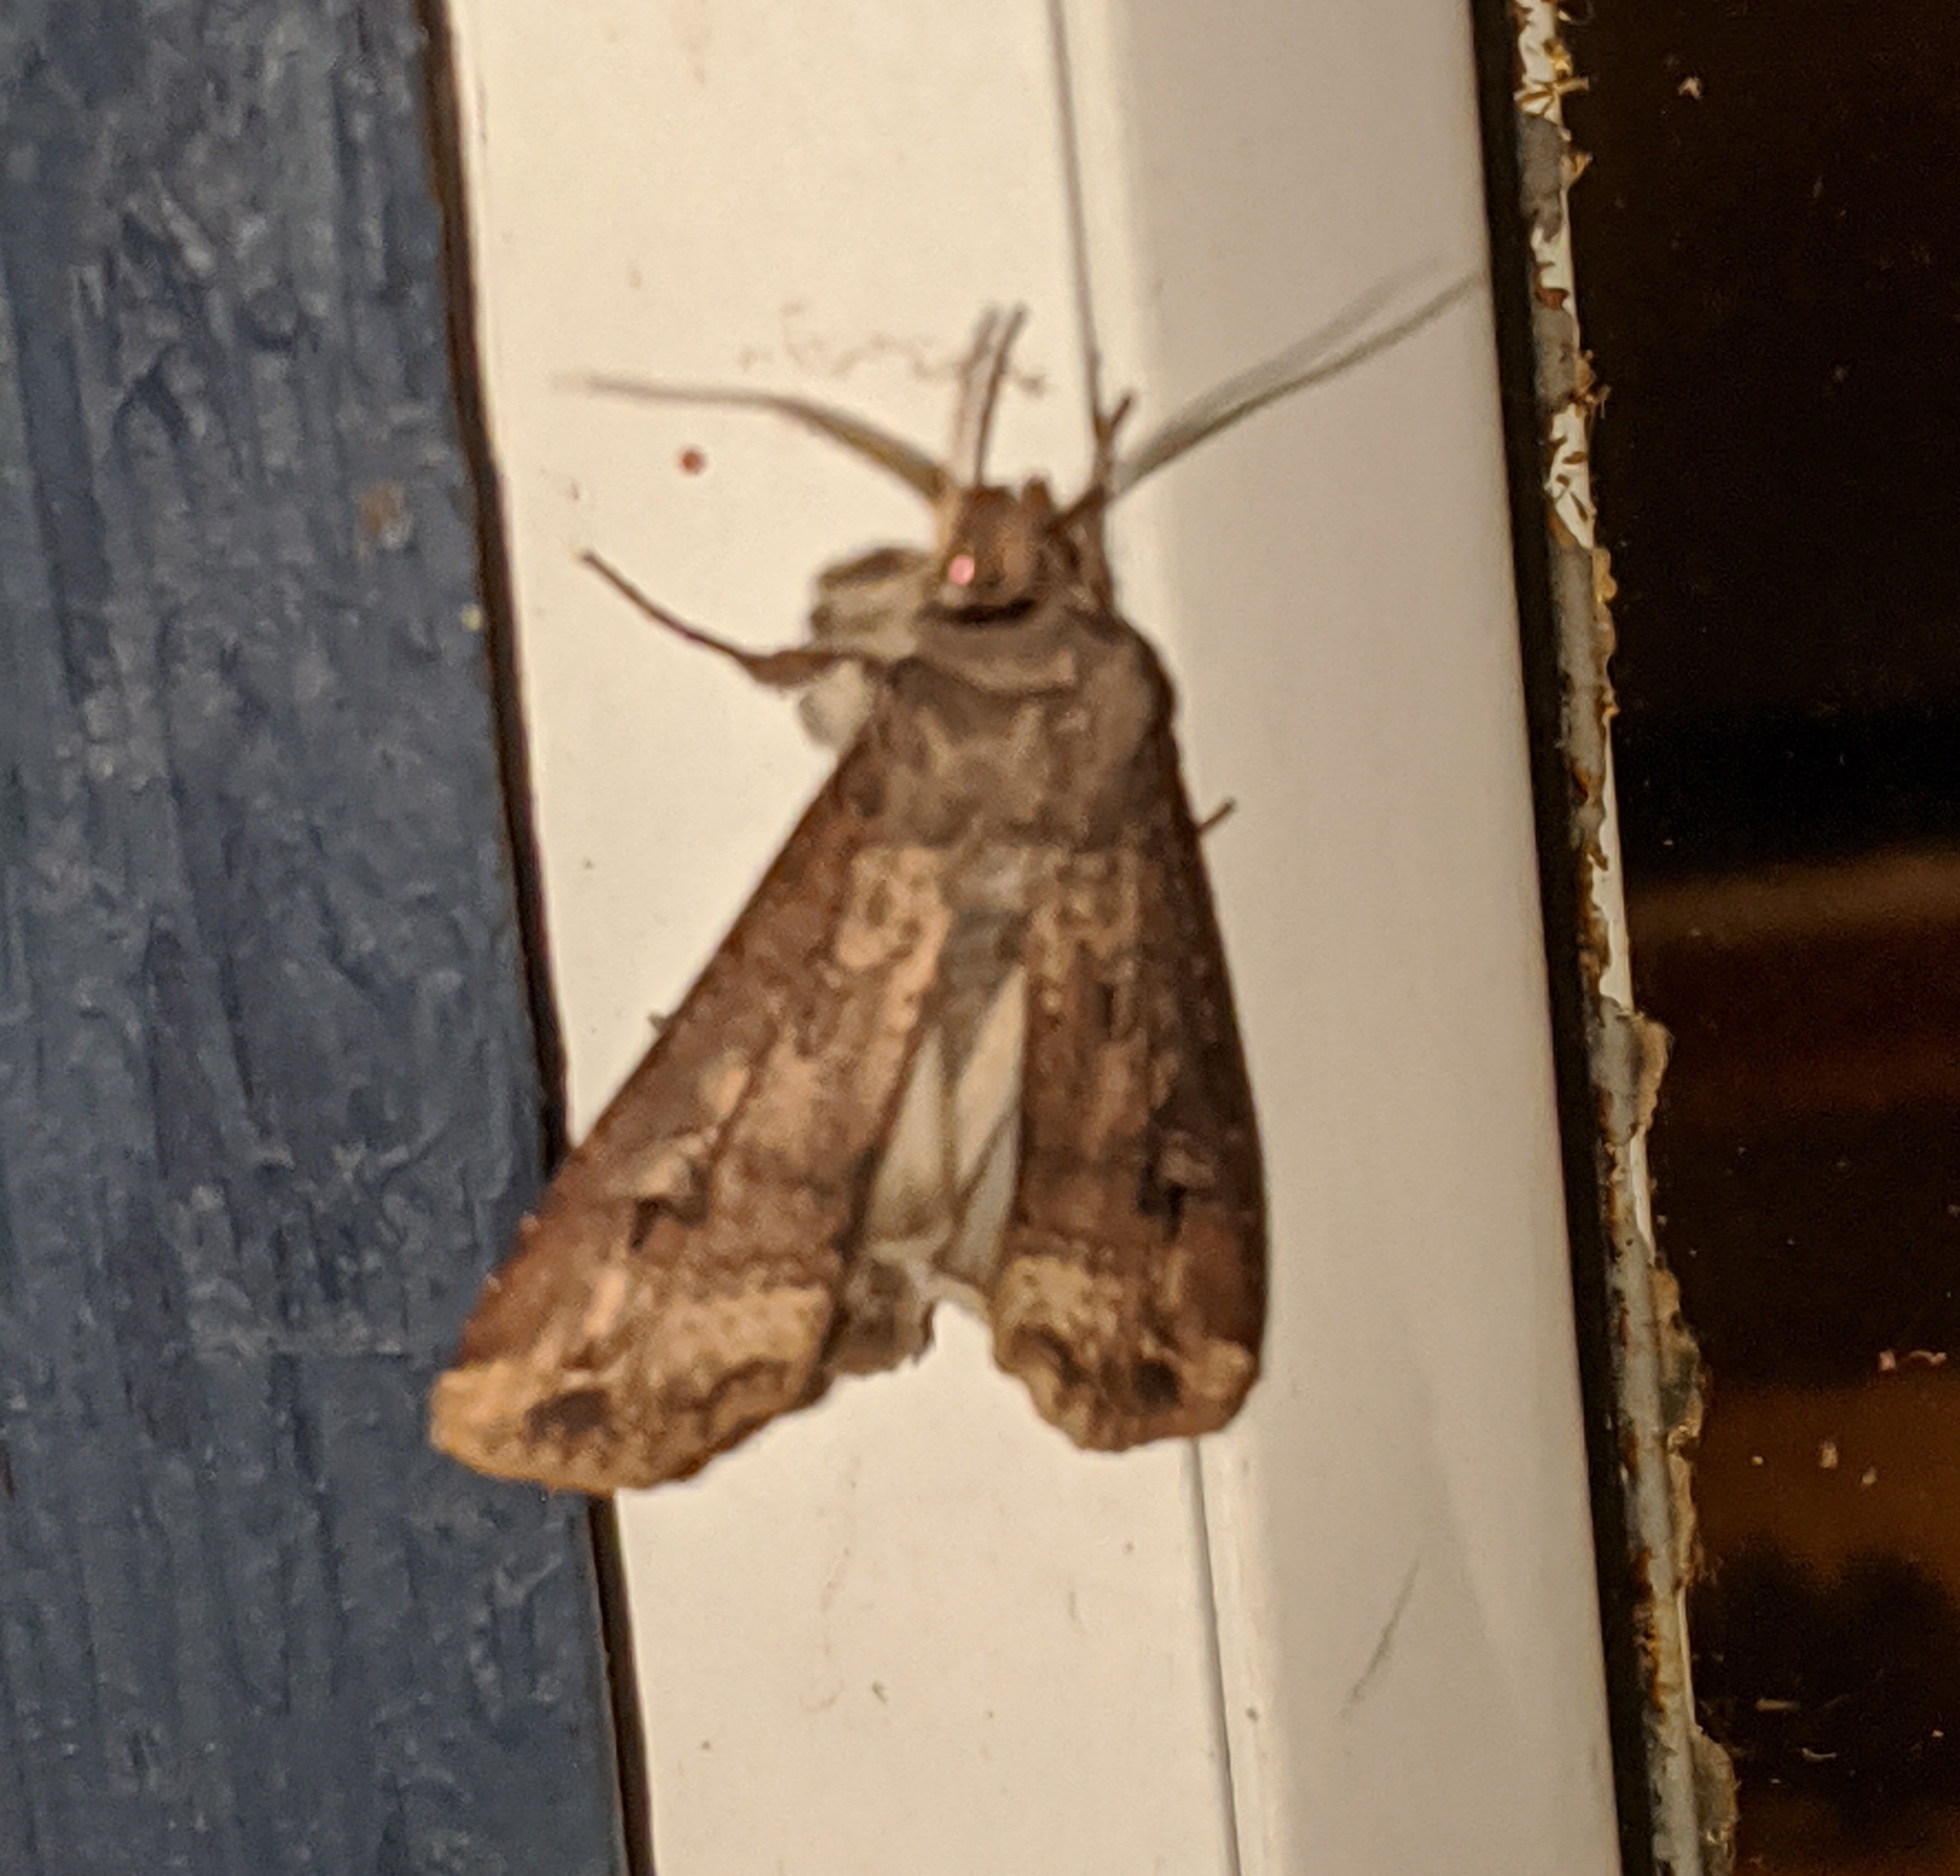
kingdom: Animalia
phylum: Arthropoda
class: Insecta
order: Lepidoptera
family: Noctuidae
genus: Agrotis
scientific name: Agrotis ipsilon
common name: Dark sword-grass
